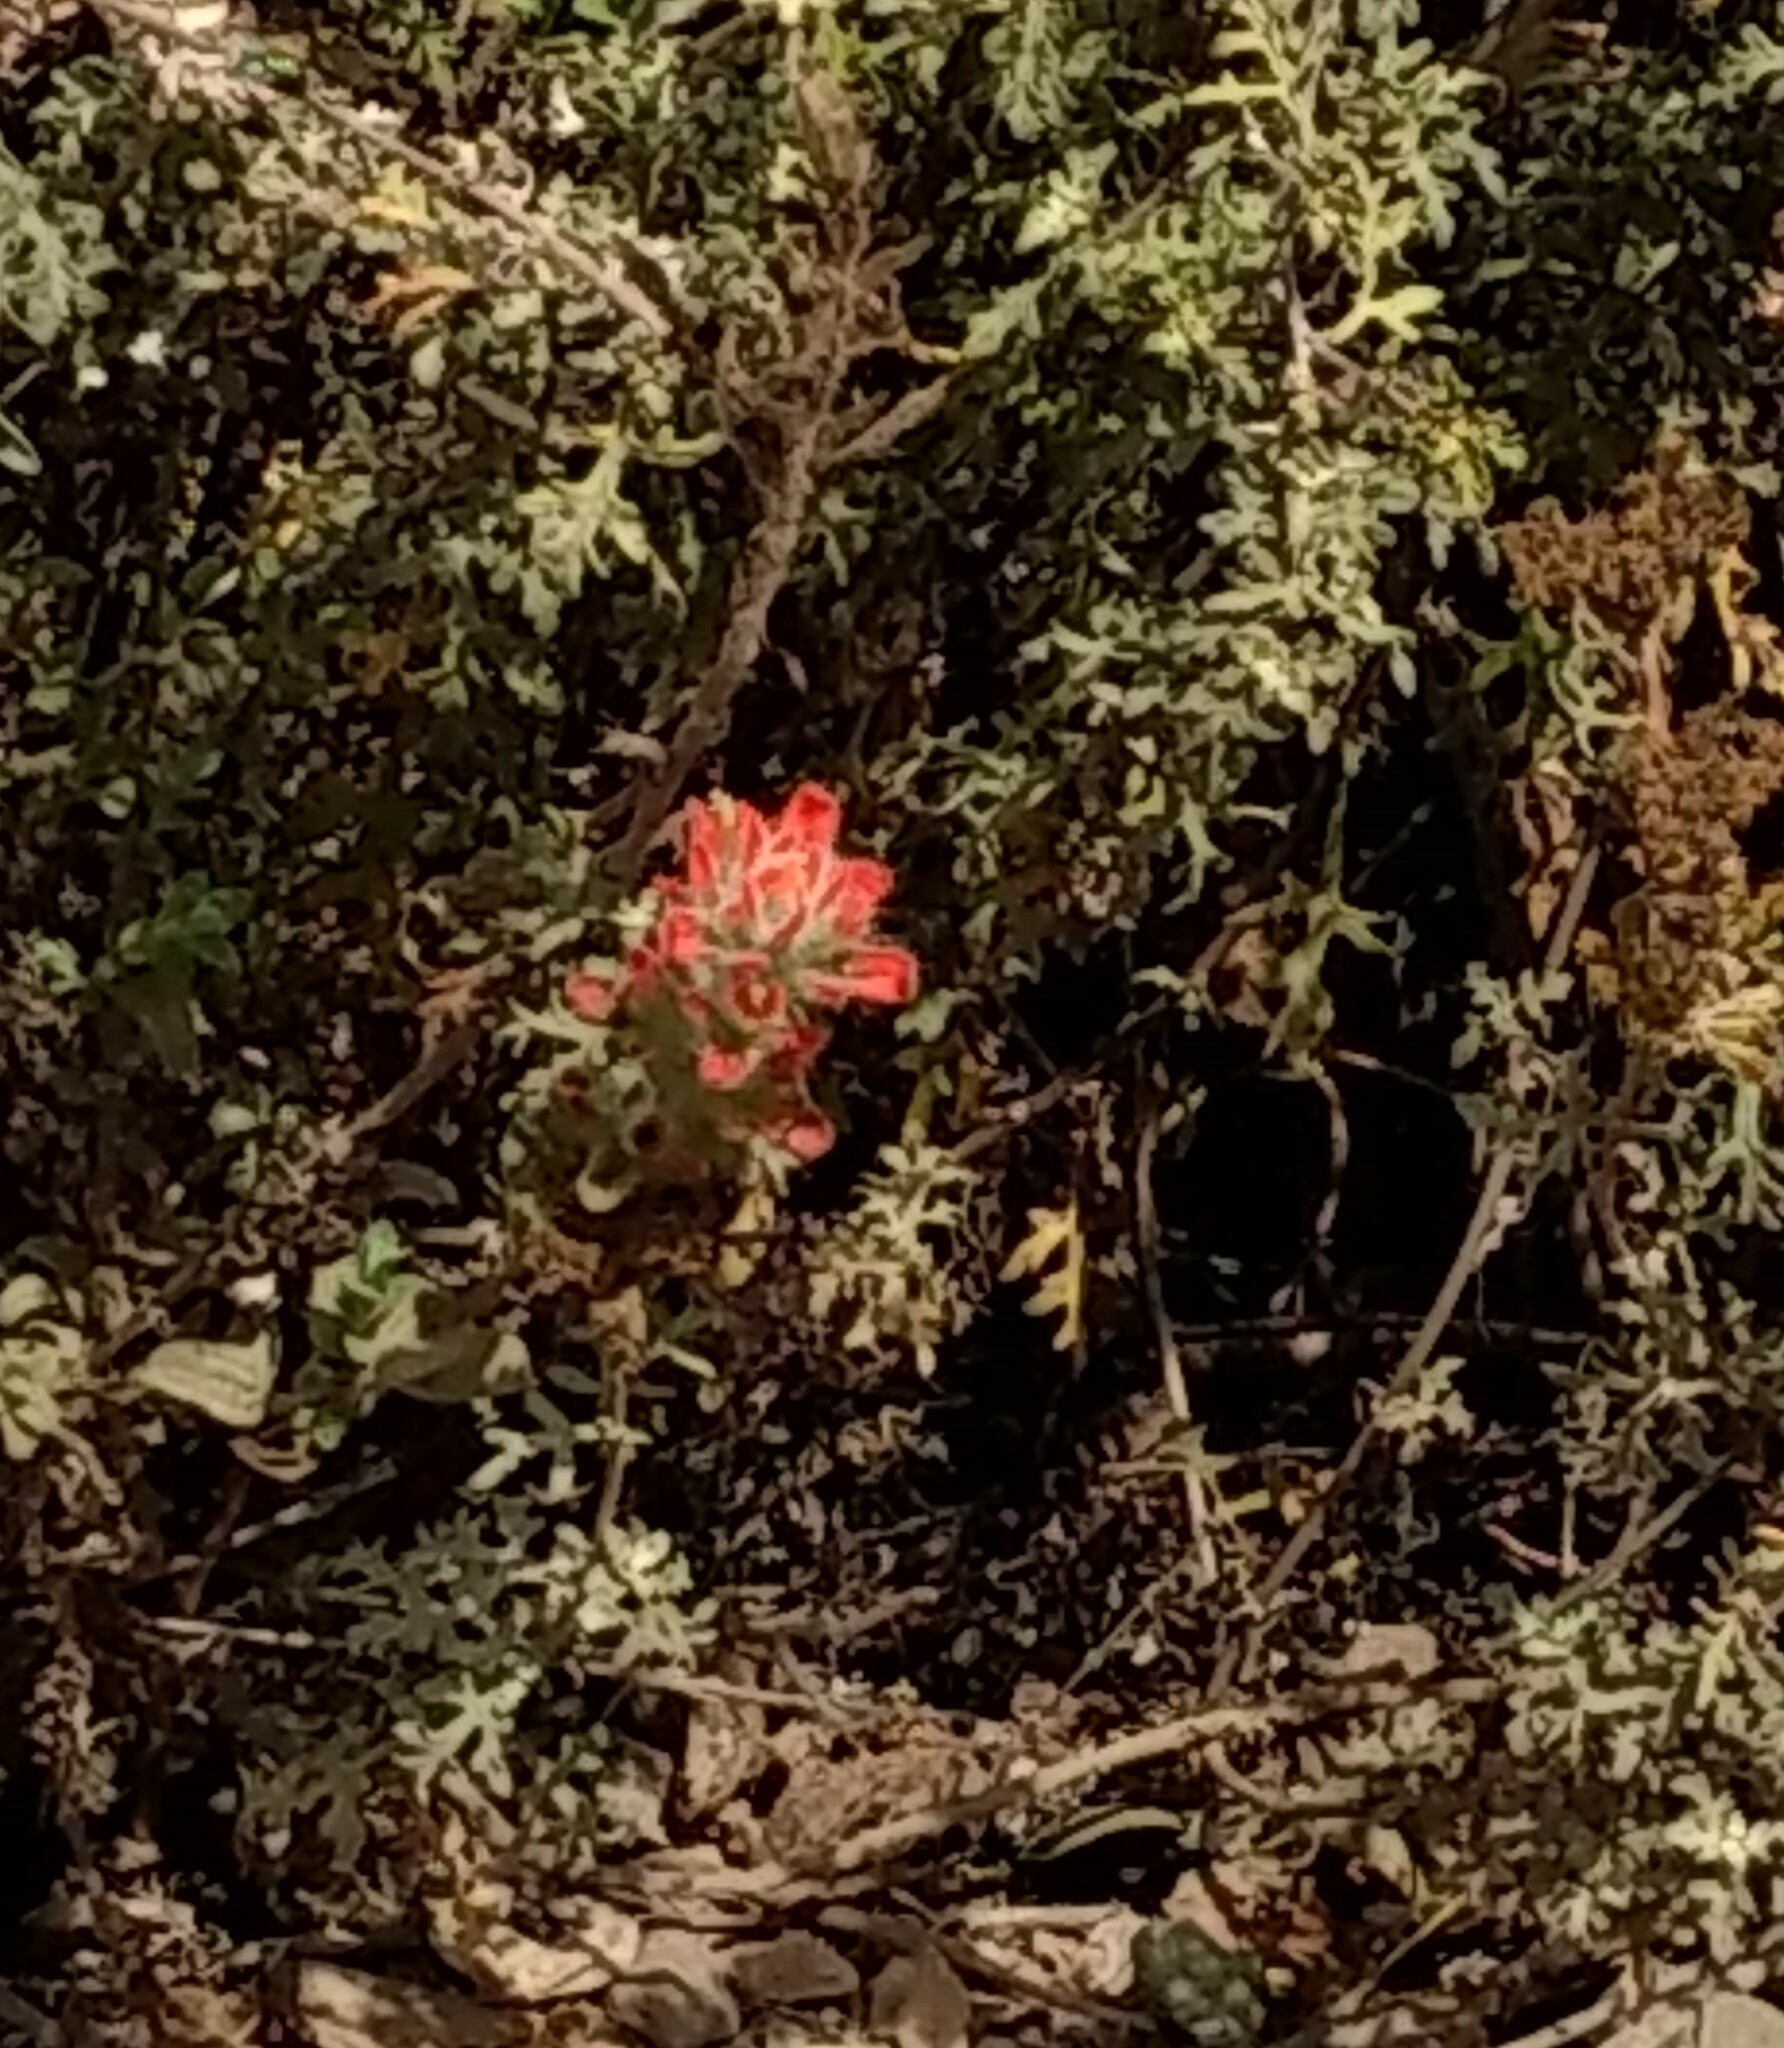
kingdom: Plantae
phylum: Tracheophyta
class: Magnoliopsida
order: Lamiales
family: Orobanchaceae
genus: Castilleja
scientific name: Castilleja
